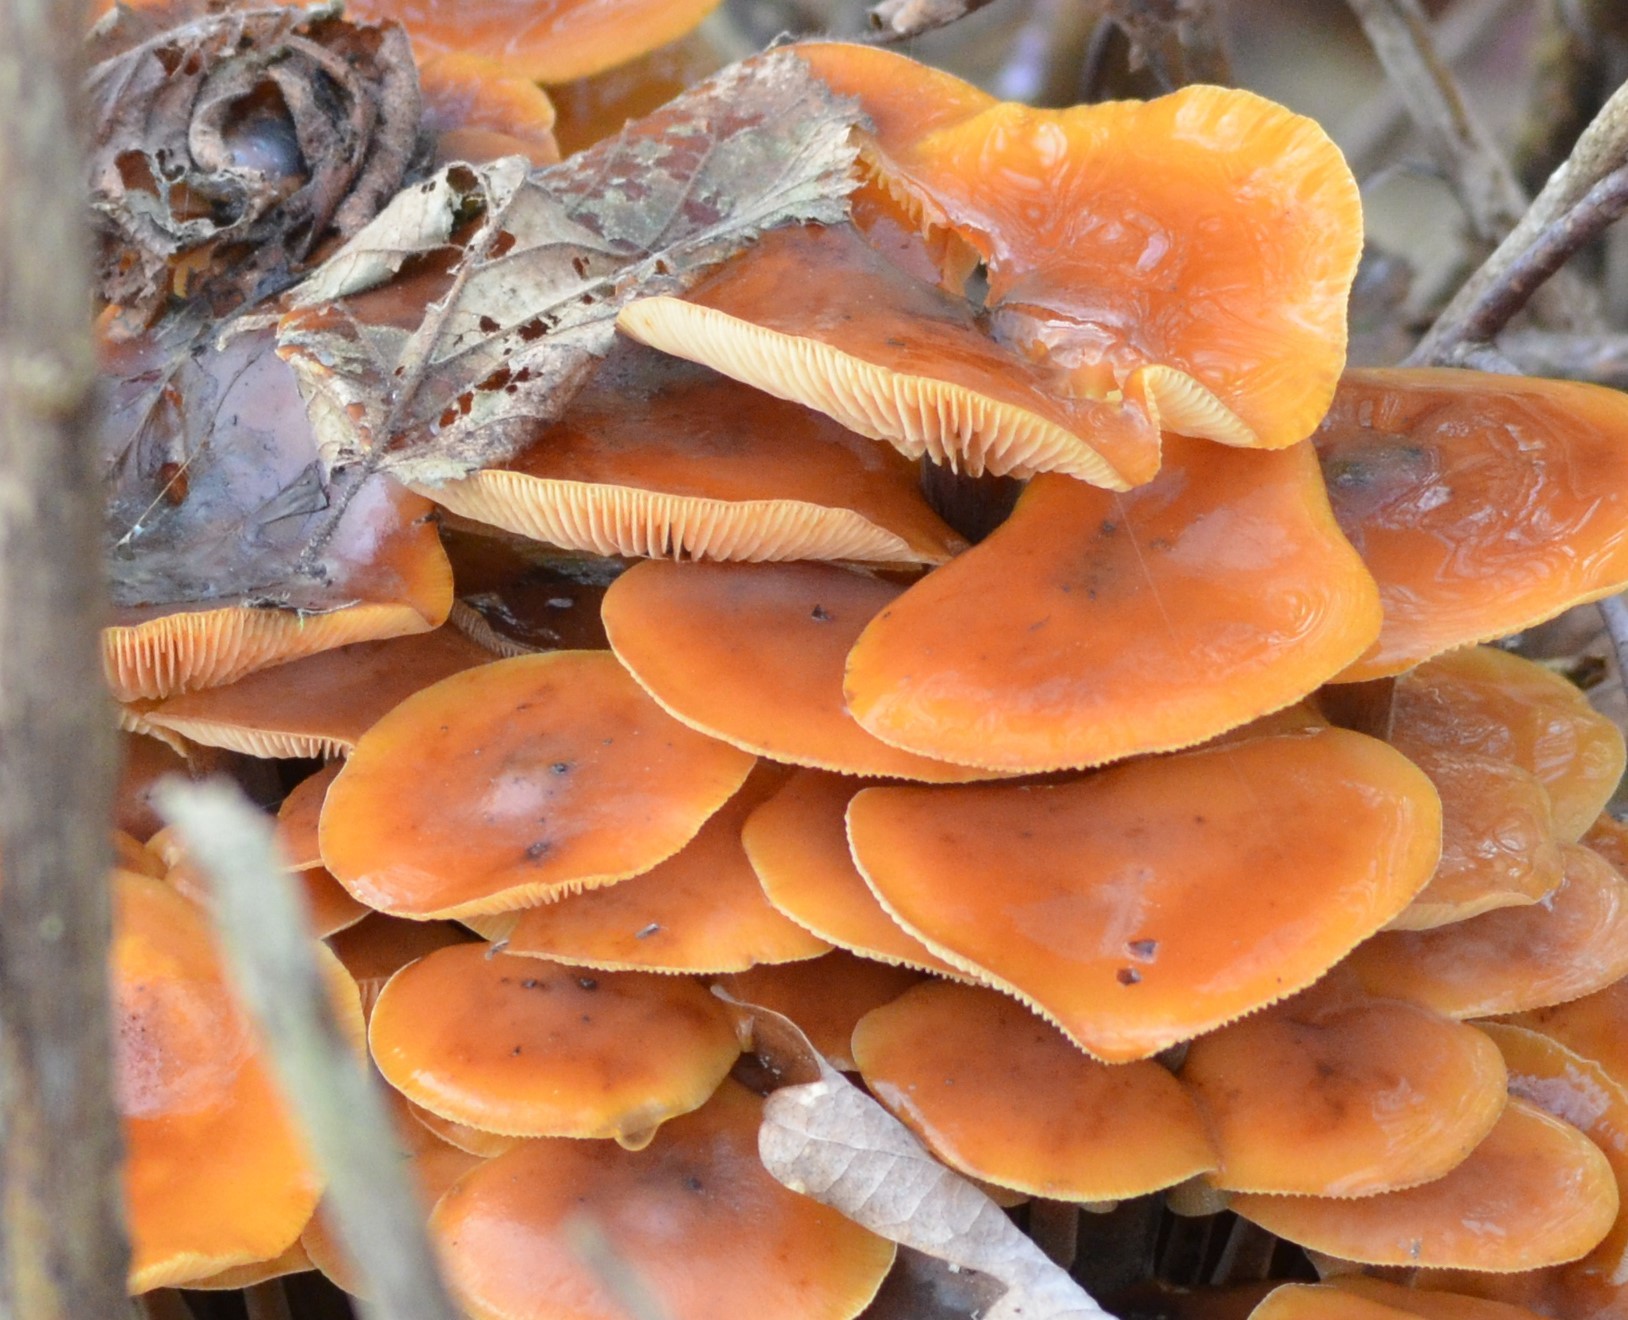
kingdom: Fungi
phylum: Basidiomycota
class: Agaricomycetes
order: Agaricales
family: Physalacriaceae
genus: Flammulina
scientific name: Flammulina
